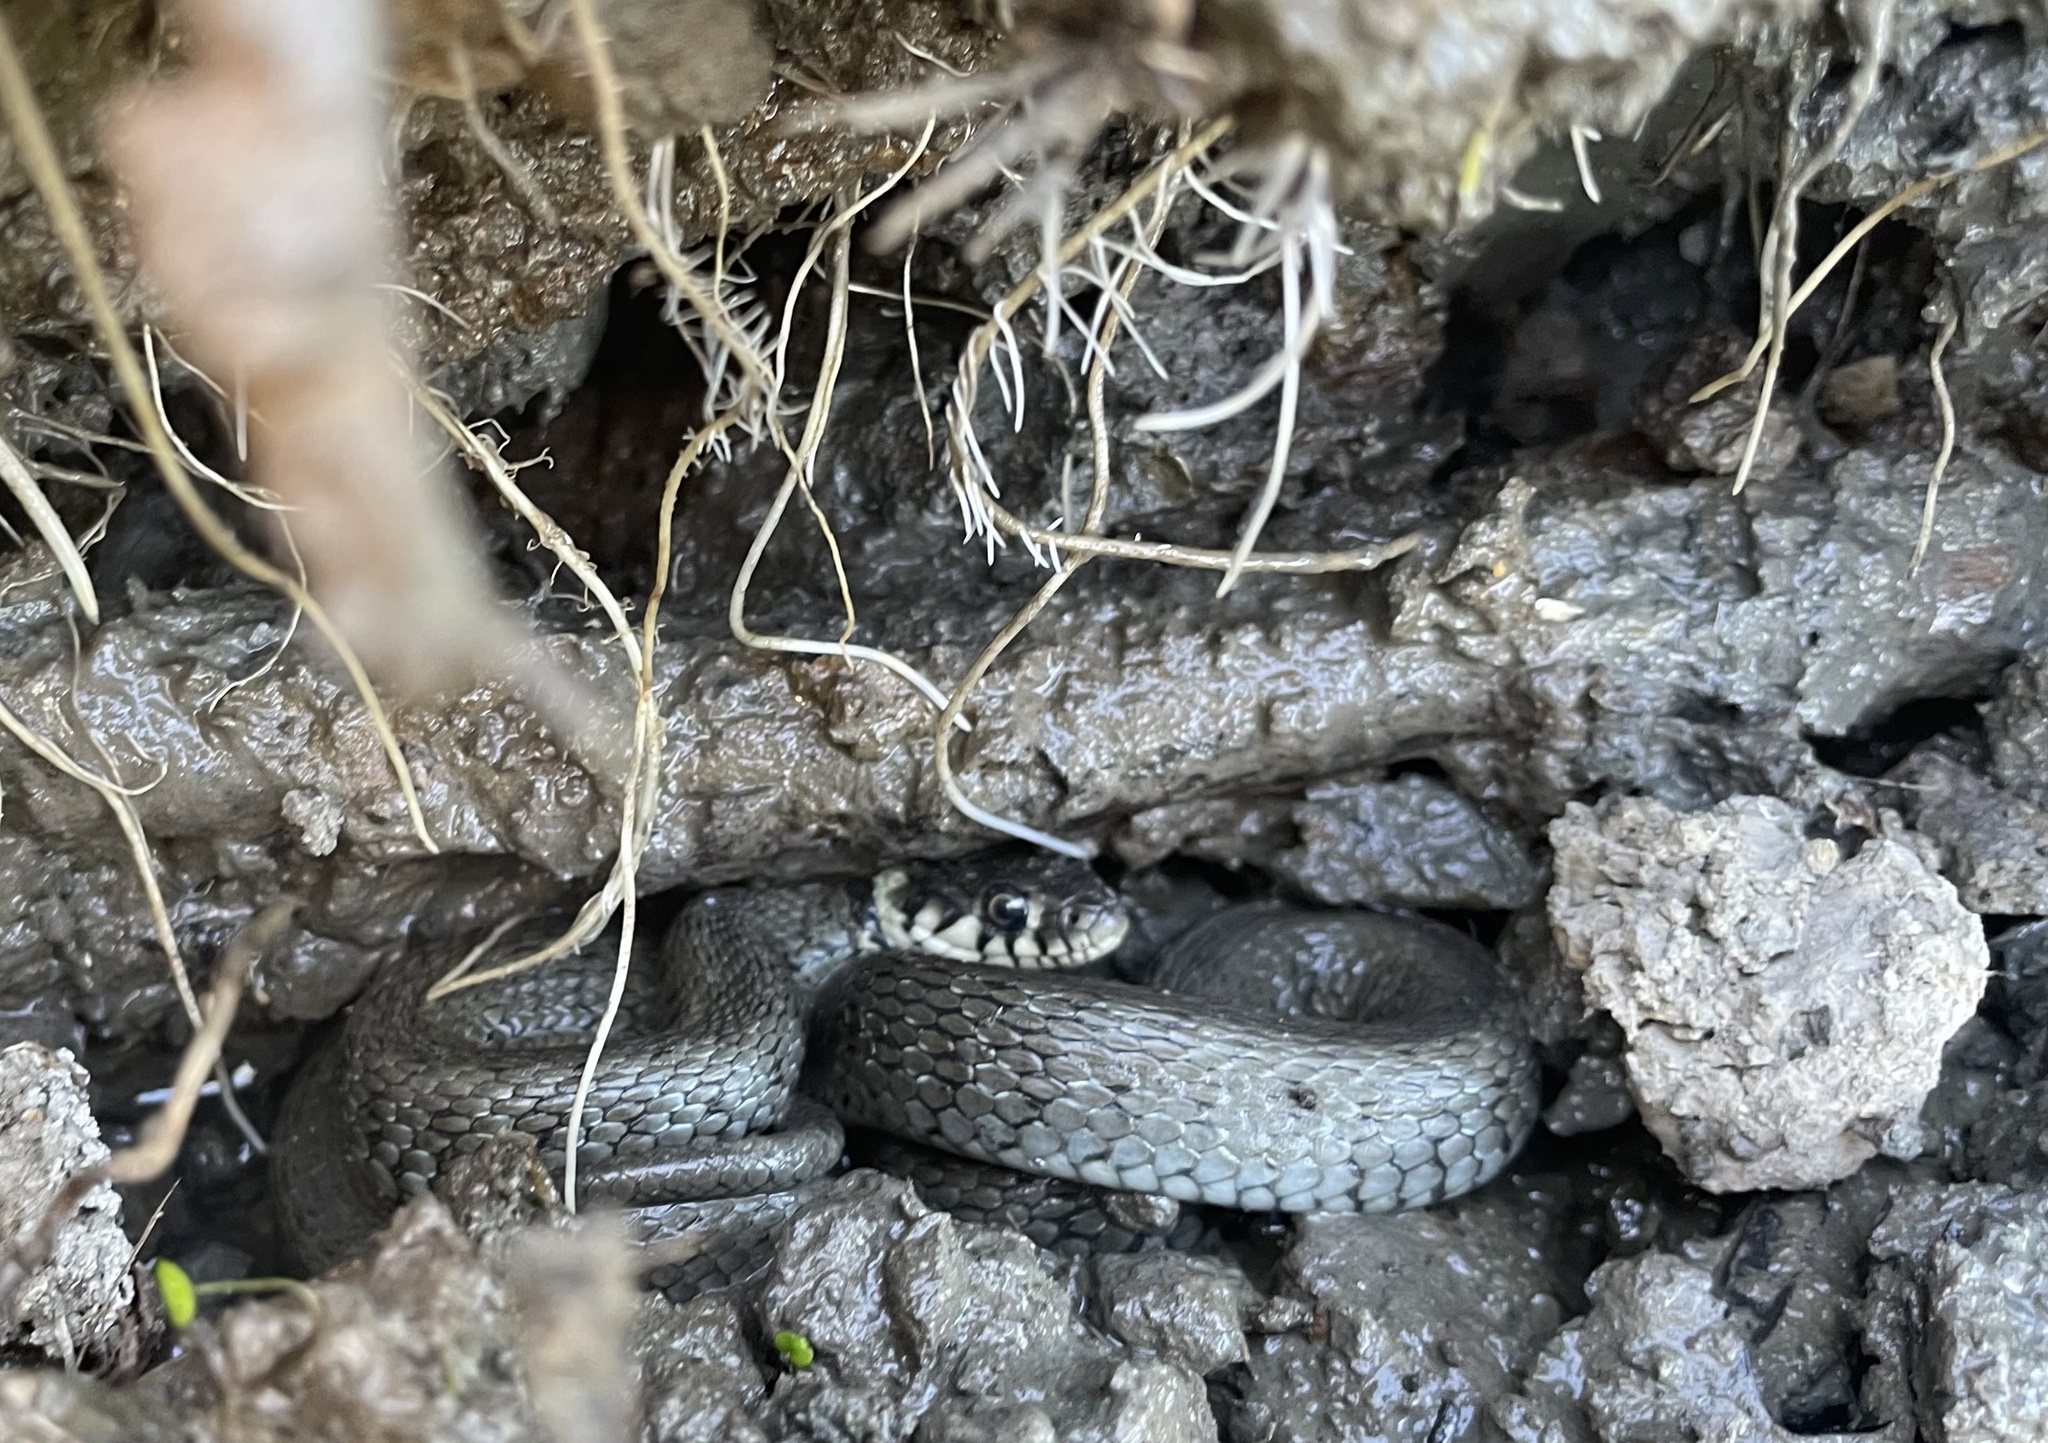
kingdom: Animalia
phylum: Chordata
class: Squamata
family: Colubridae
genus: Natrix
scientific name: Natrix natrix
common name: Grass snake
